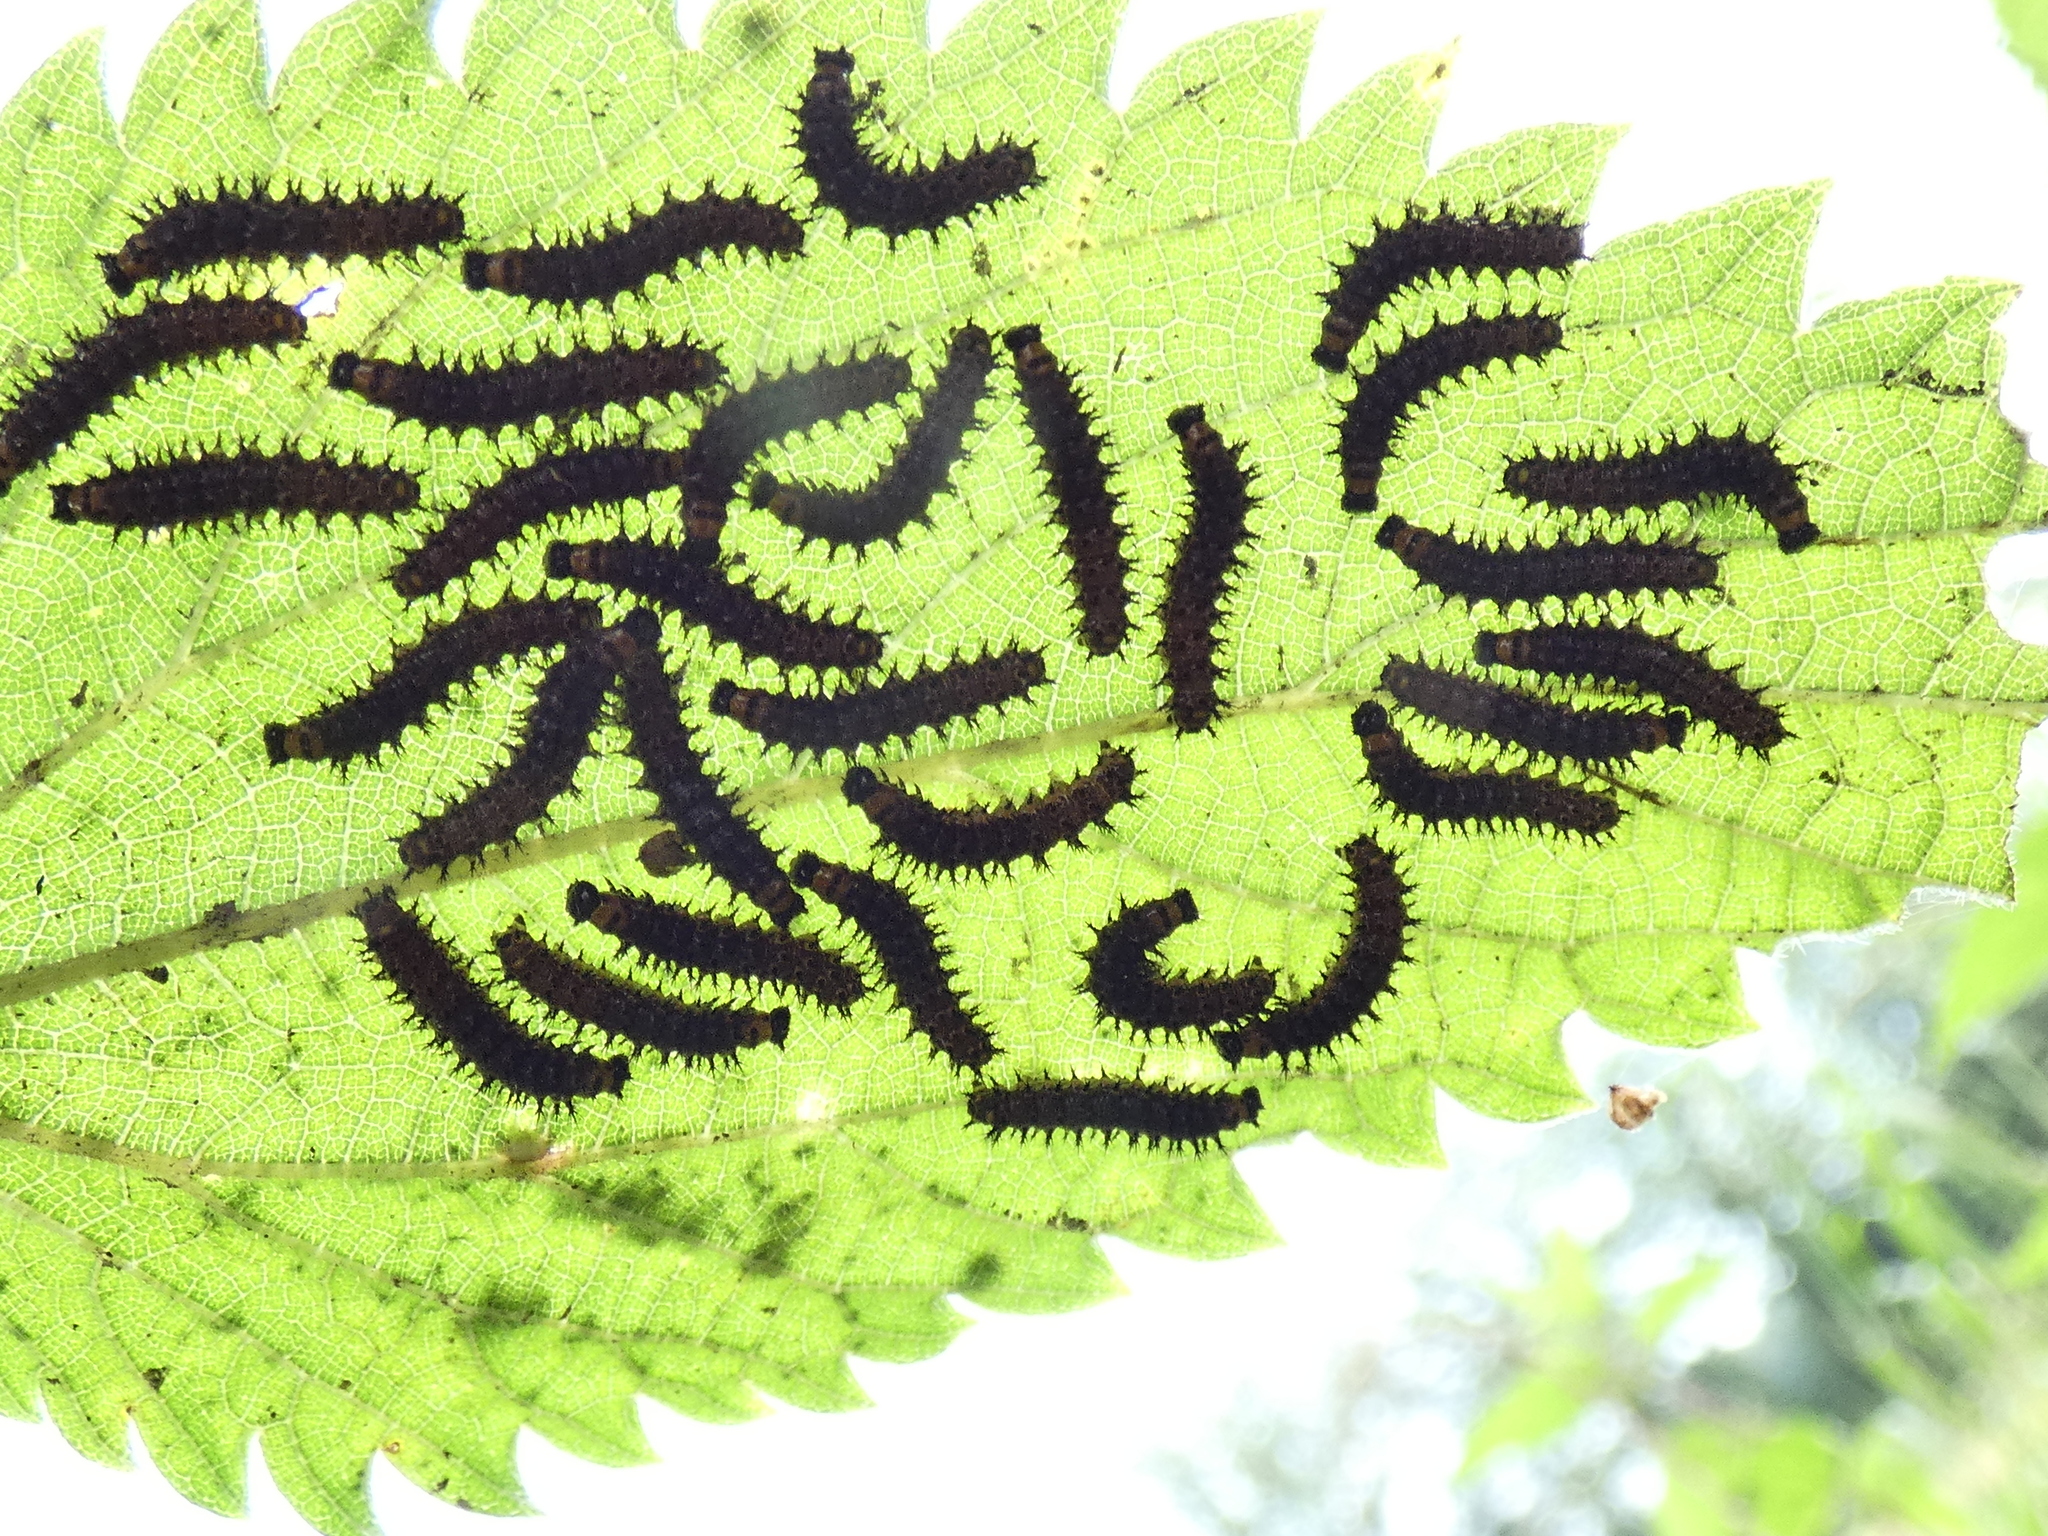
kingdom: Animalia
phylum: Arthropoda
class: Insecta
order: Lepidoptera
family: Nymphalidae
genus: Araschnia
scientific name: Araschnia levana
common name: Map butterfly
